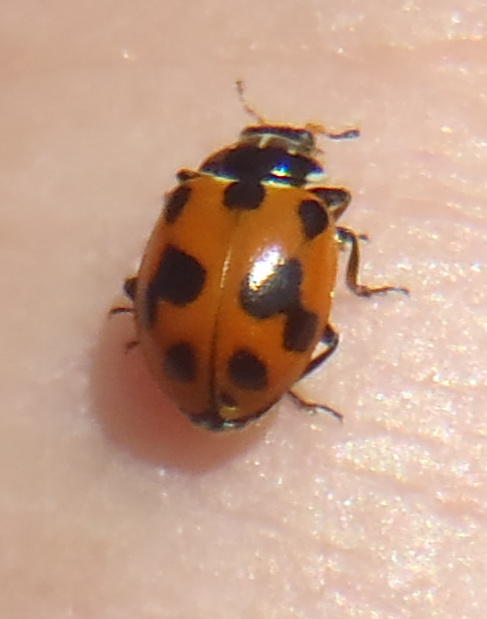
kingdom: Animalia
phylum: Arthropoda
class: Insecta
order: Coleoptera
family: Coccinellidae
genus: Hippodamia
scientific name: Hippodamia variegata
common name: Ladybird beetle
